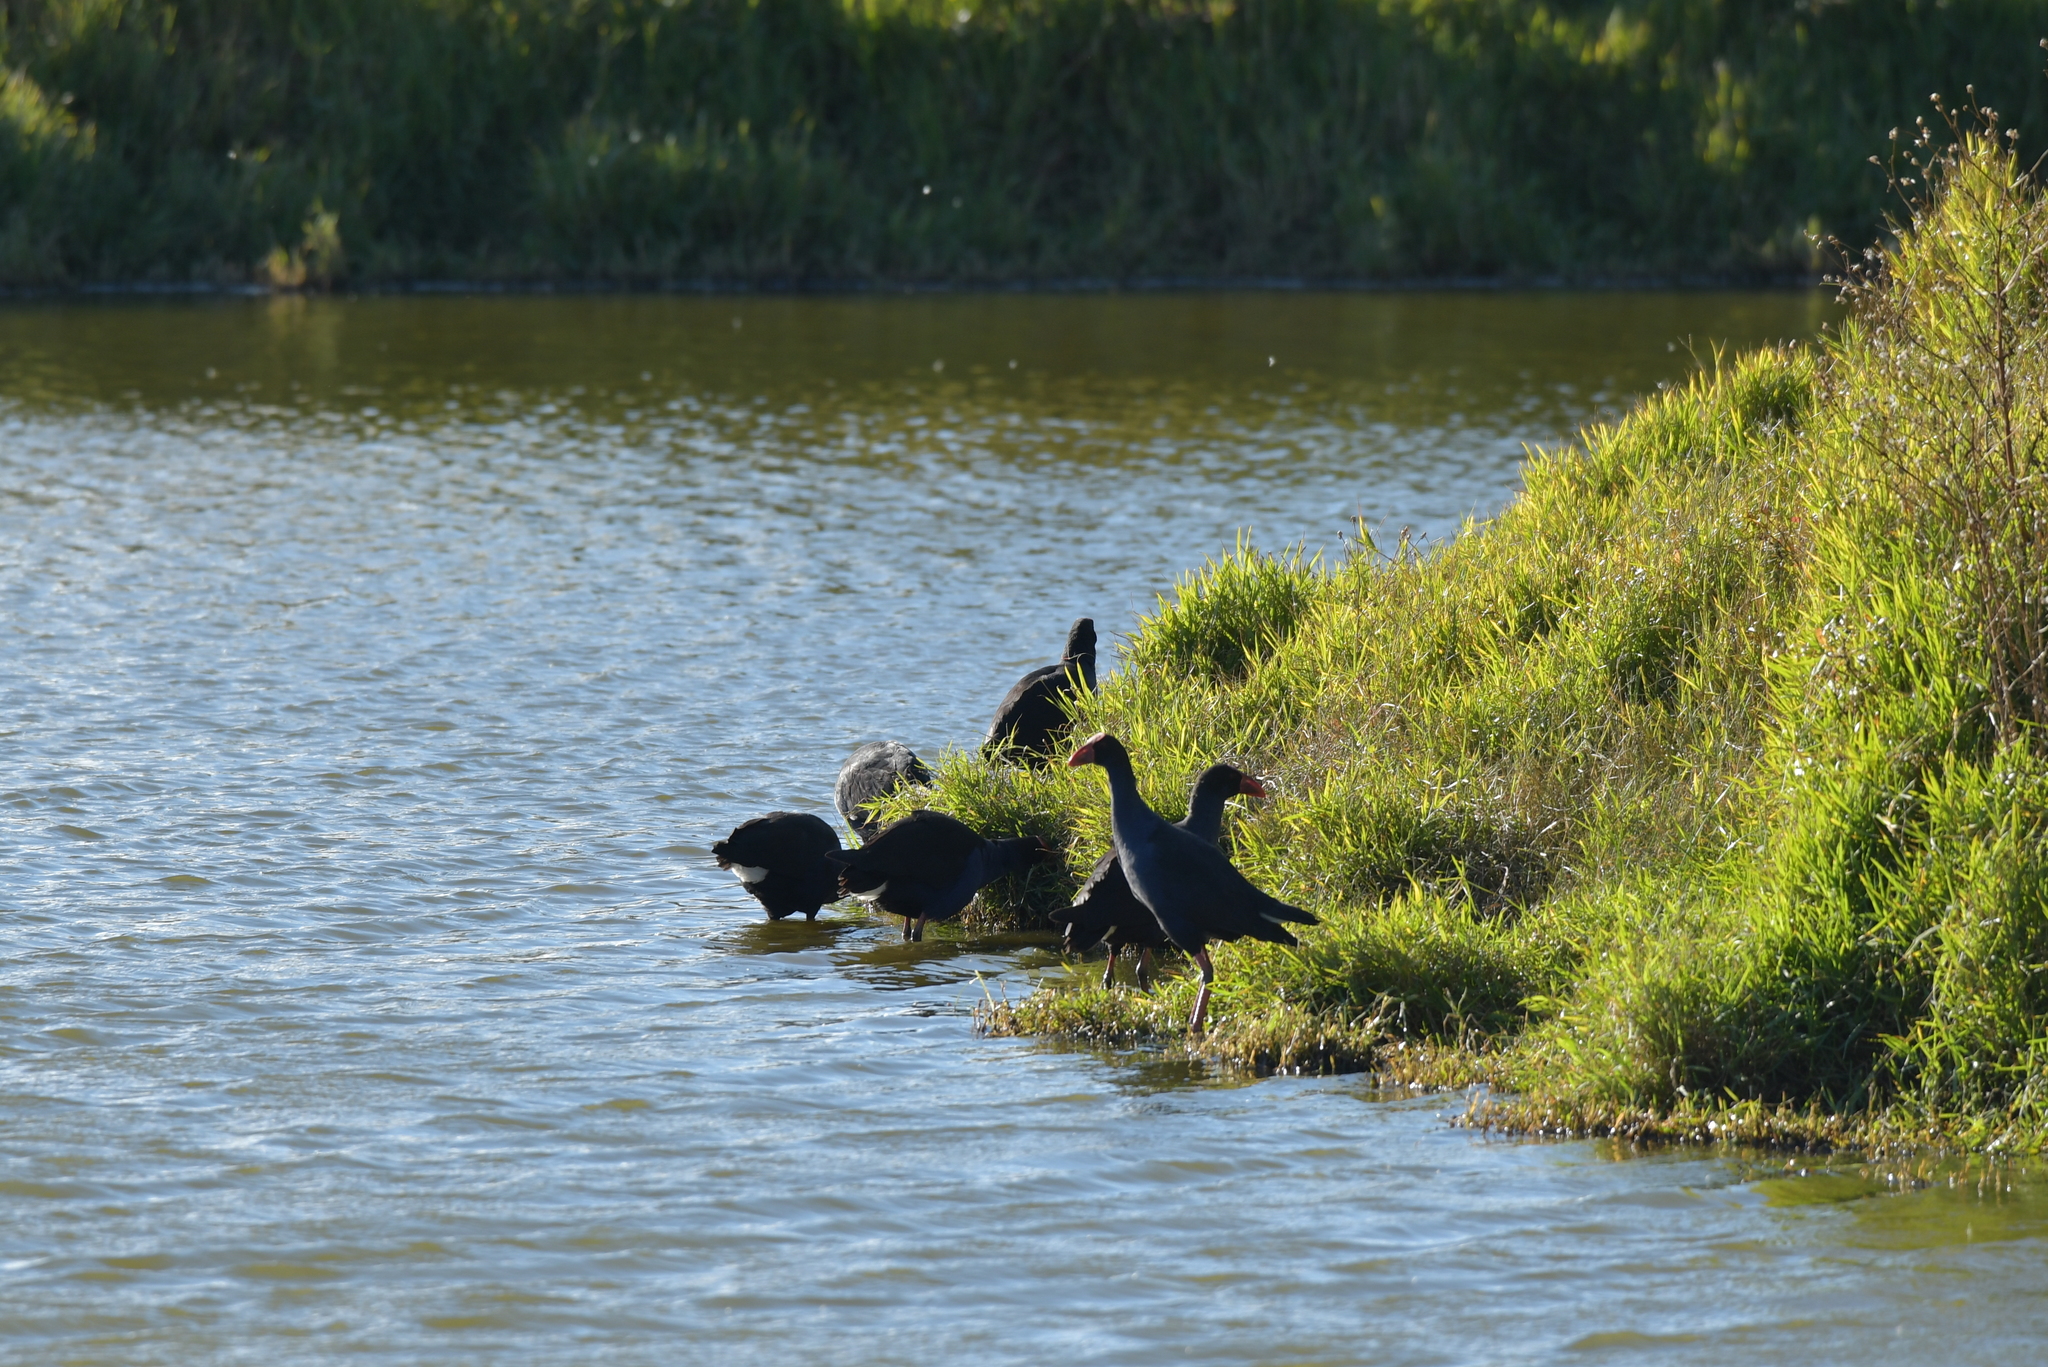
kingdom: Animalia
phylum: Chordata
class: Aves
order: Gruiformes
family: Rallidae
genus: Porphyrio
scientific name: Porphyrio melanotus
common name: Australasian swamphen
